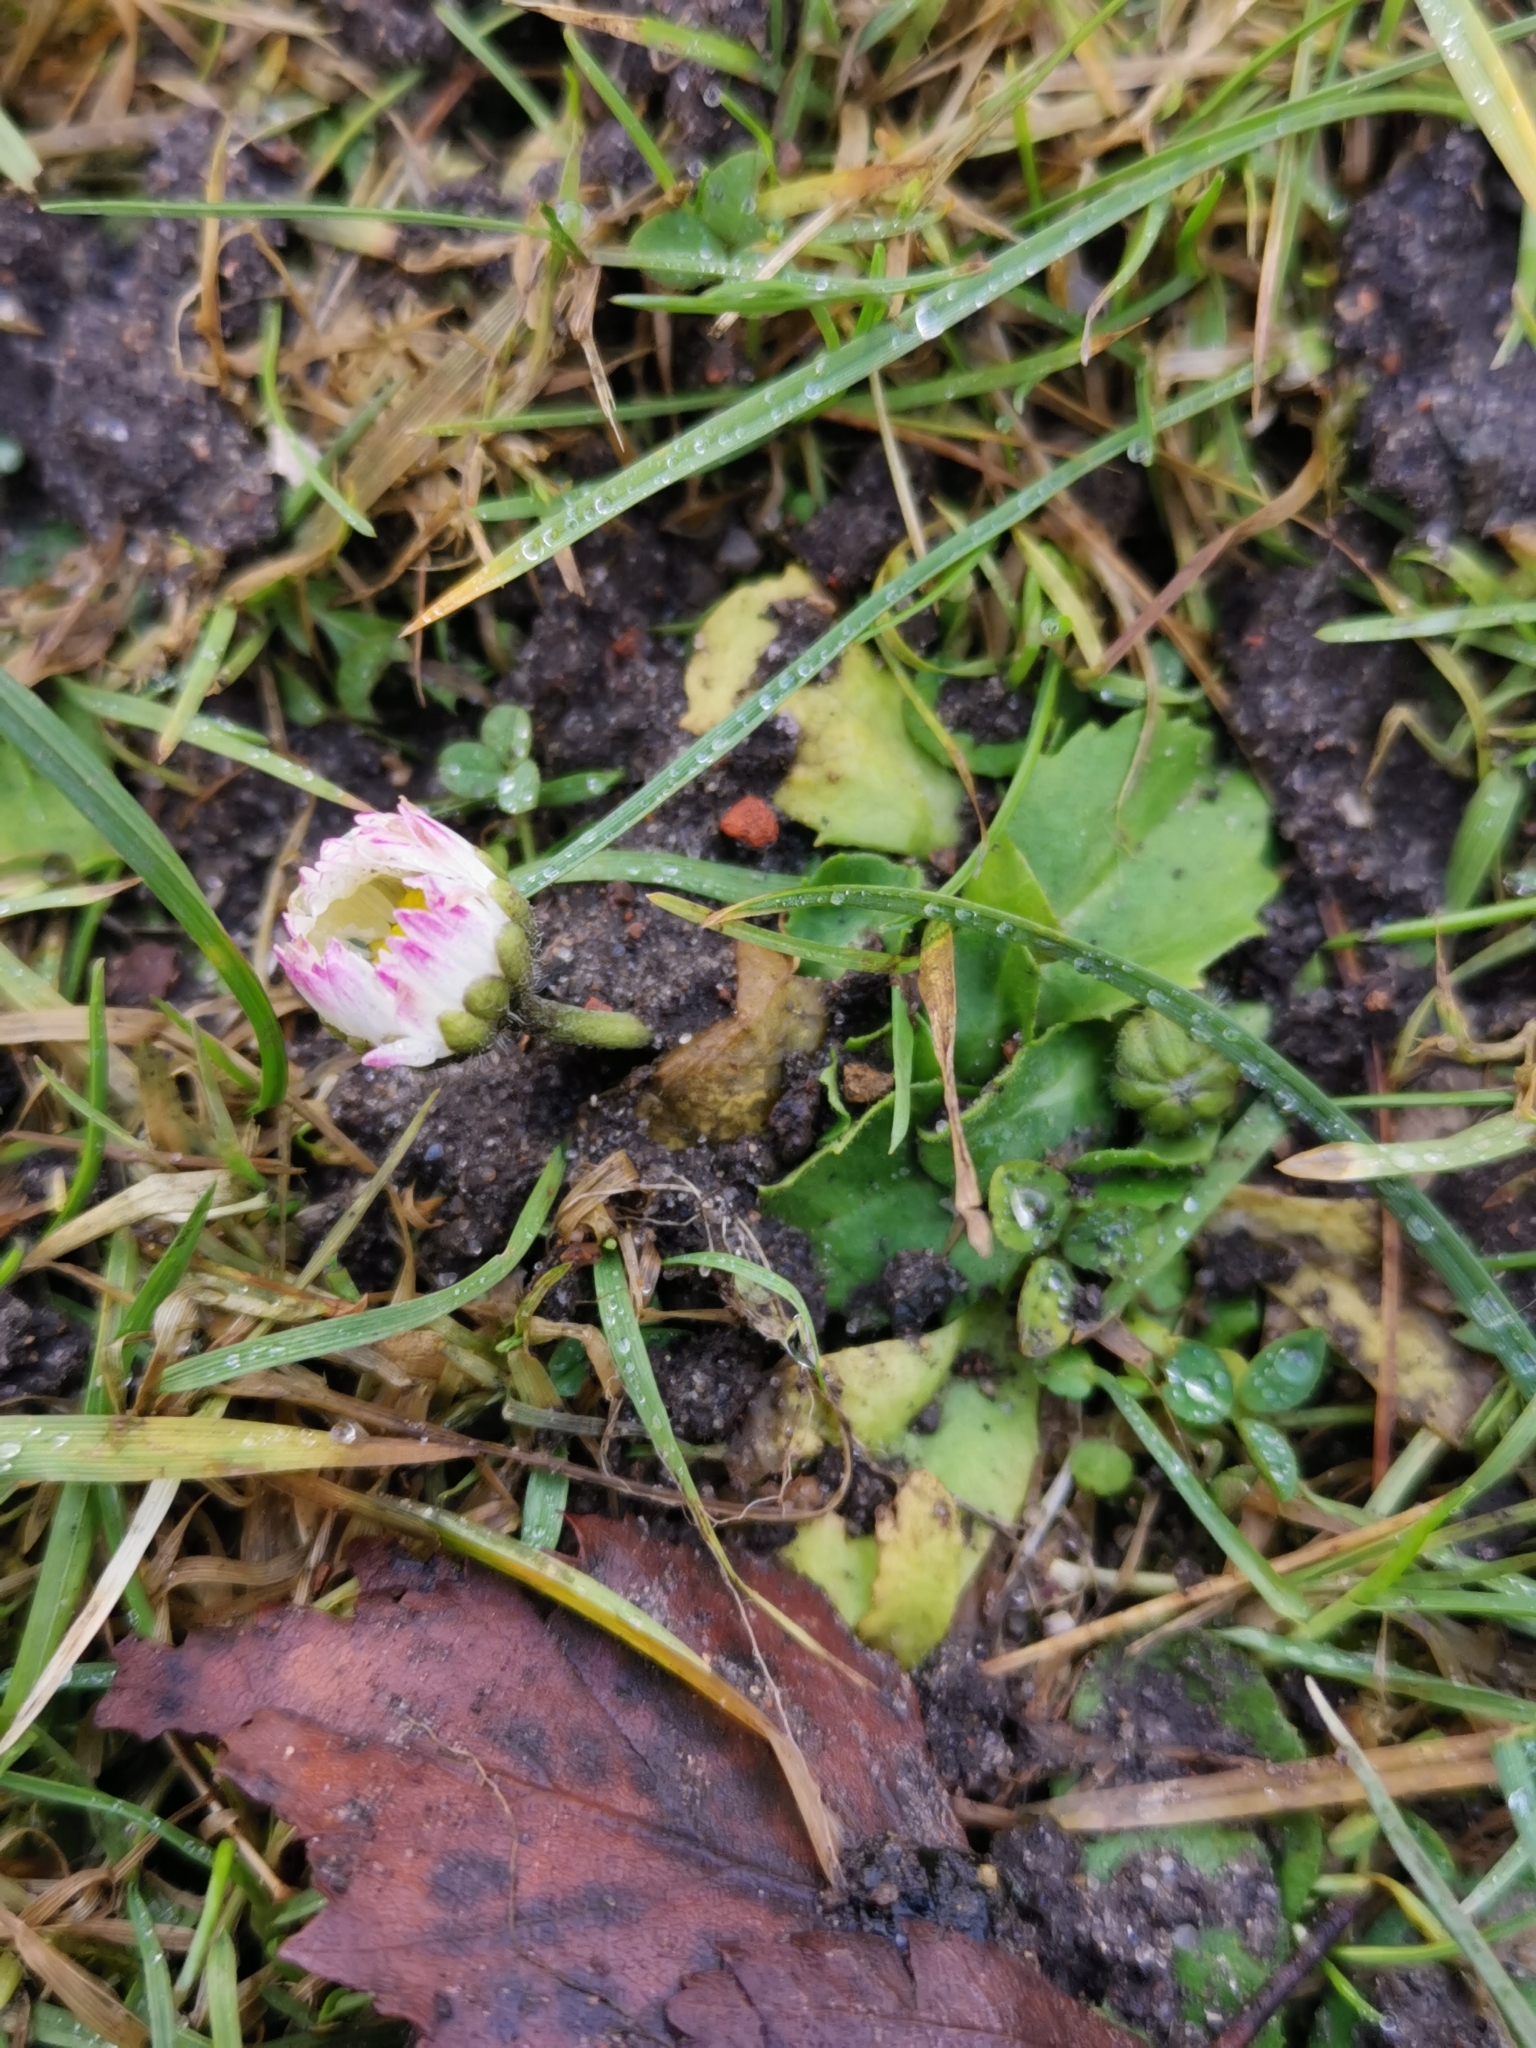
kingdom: Plantae
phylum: Tracheophyta
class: Magnoliopsida
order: Asterales
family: Asteraceae
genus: Bellis
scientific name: Bellis perennis
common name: Lawndaisy
